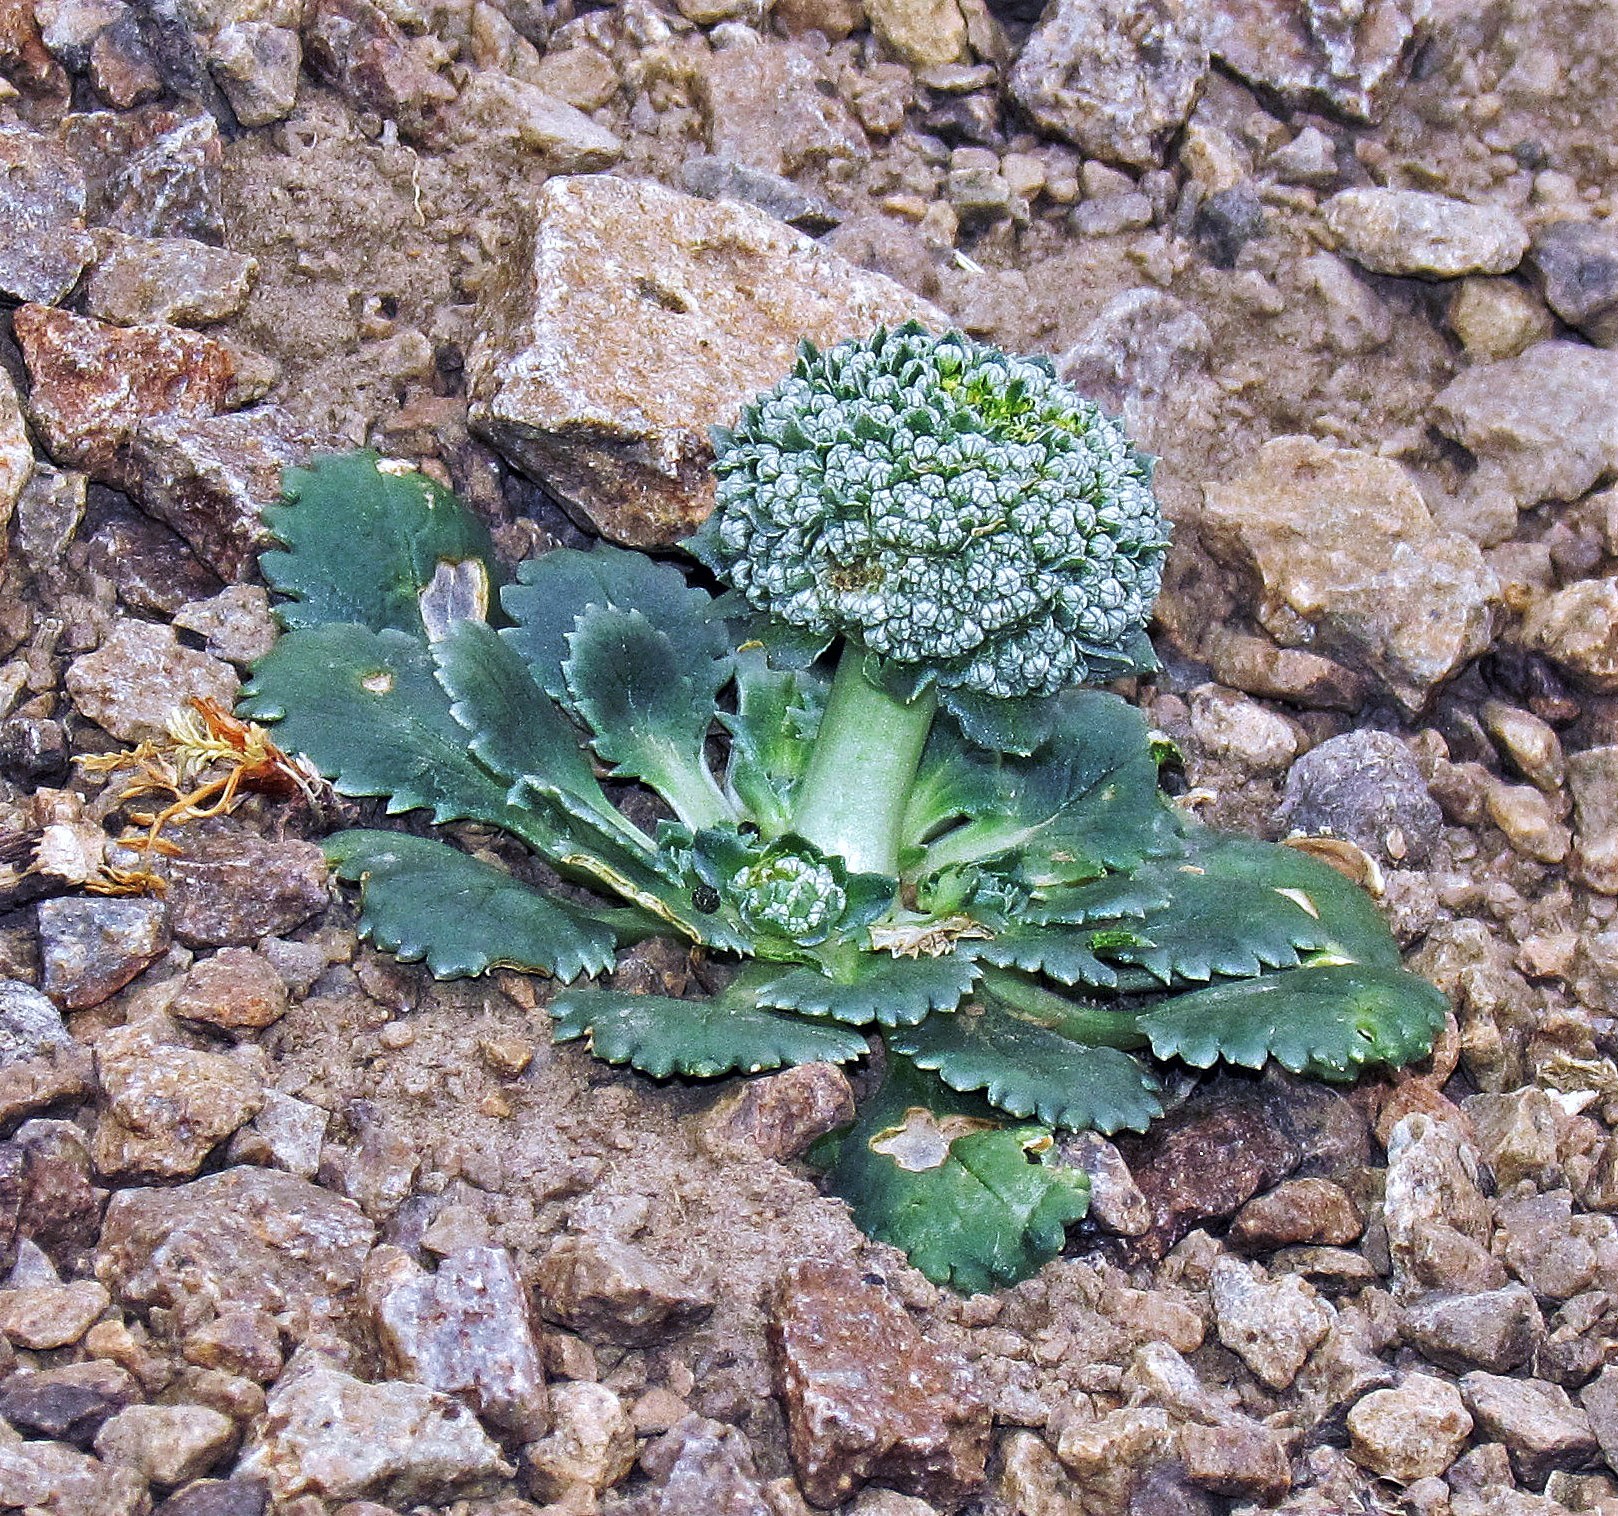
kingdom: Plantae
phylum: Tracheophyta
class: Magnoliopsida
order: Asterales
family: Calyceraceae
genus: Gamocarpha
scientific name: Gamocarpha macrocephala
